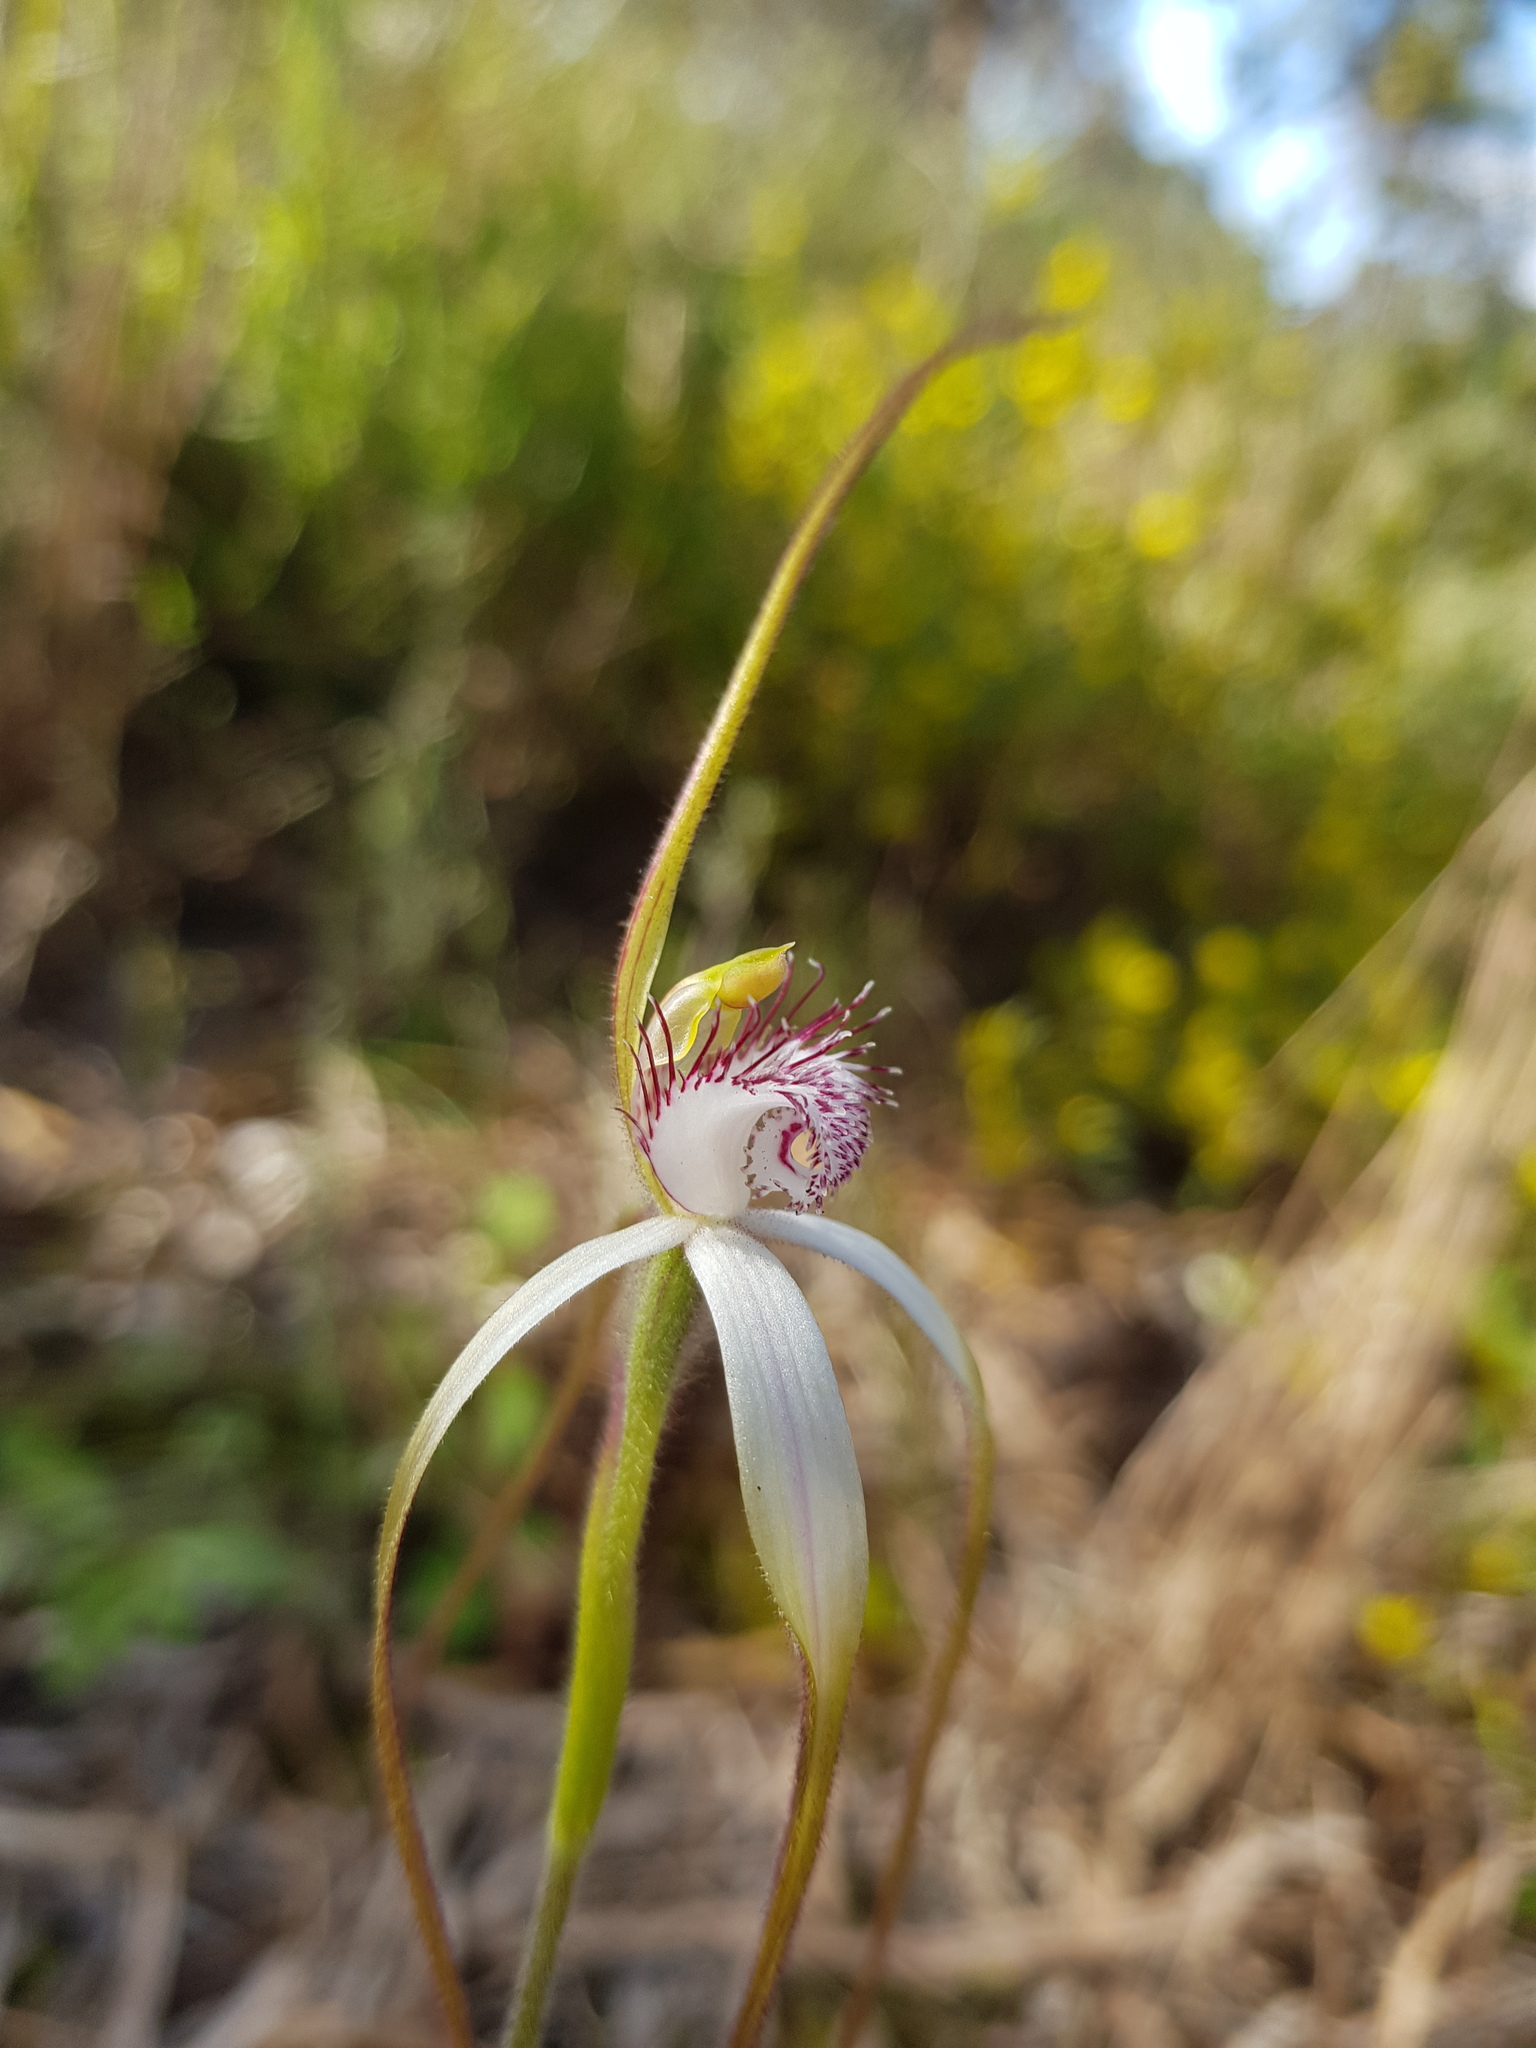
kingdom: Plantae
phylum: Tracheophyta
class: Liliopsida
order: Asparagales
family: Orchidaceae
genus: Caladenia
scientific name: Caladenia longicauda
